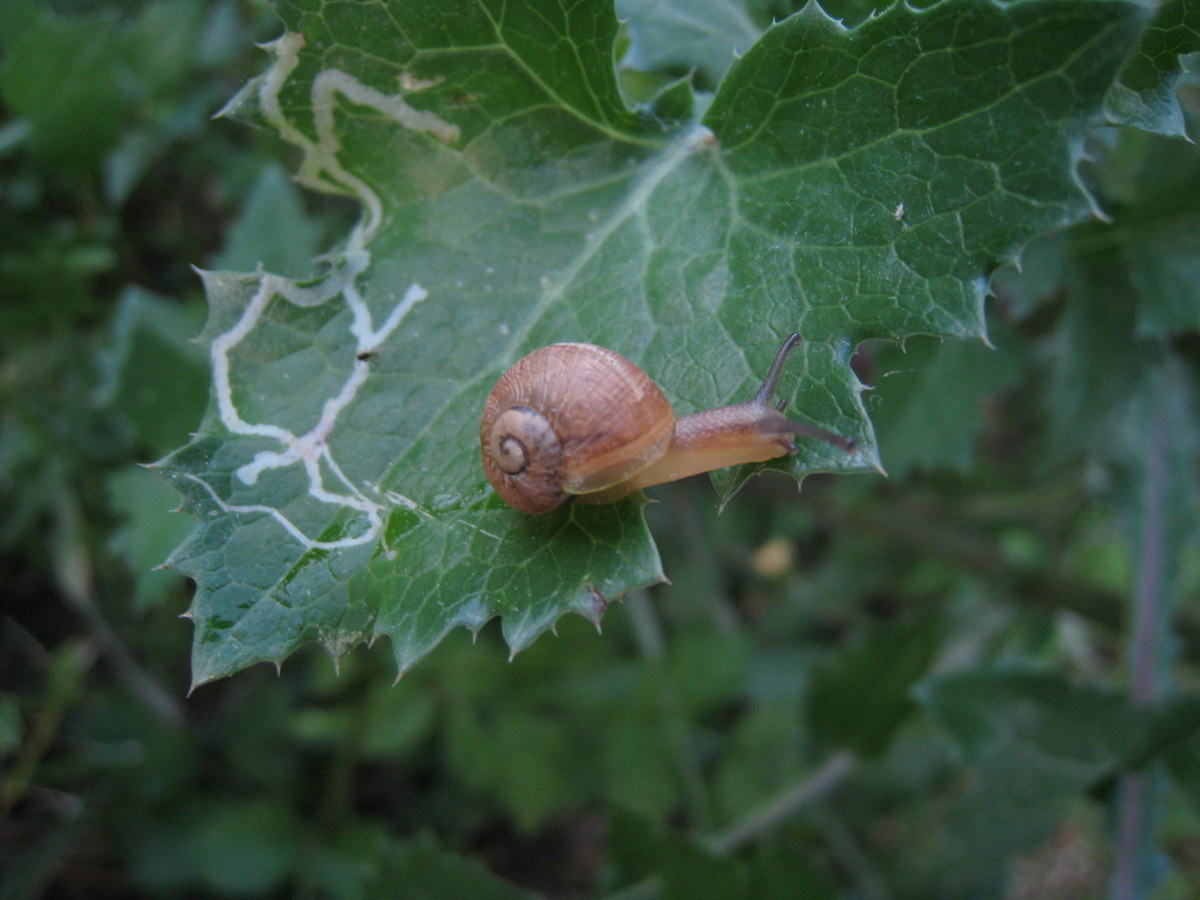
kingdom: Animalia
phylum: Mollusca
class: Gastropoda
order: Stylommatophora
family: Helicidae
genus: Cornu
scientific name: Cornu aspersum
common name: Brown garden snail
